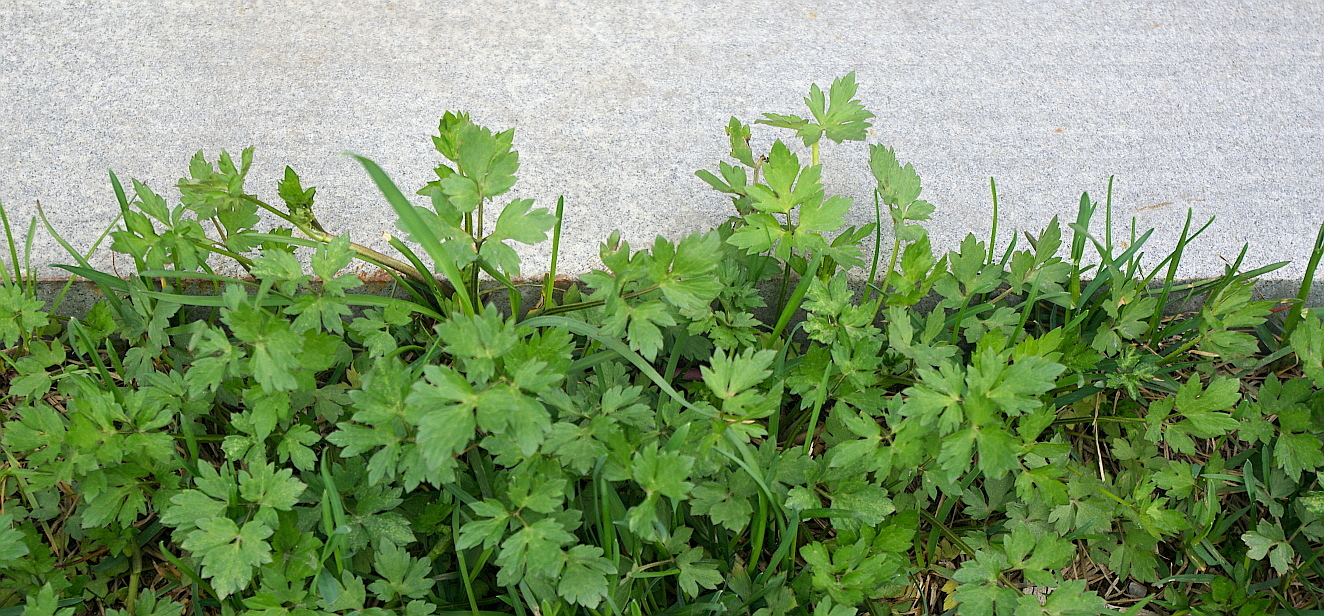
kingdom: Plantae
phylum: Tracheophyta
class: Magnoliopsida
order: Ranunculales
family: Ranunculaceae
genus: Ranunculus
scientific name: Ranunculus repens
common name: Creeping buttercup
